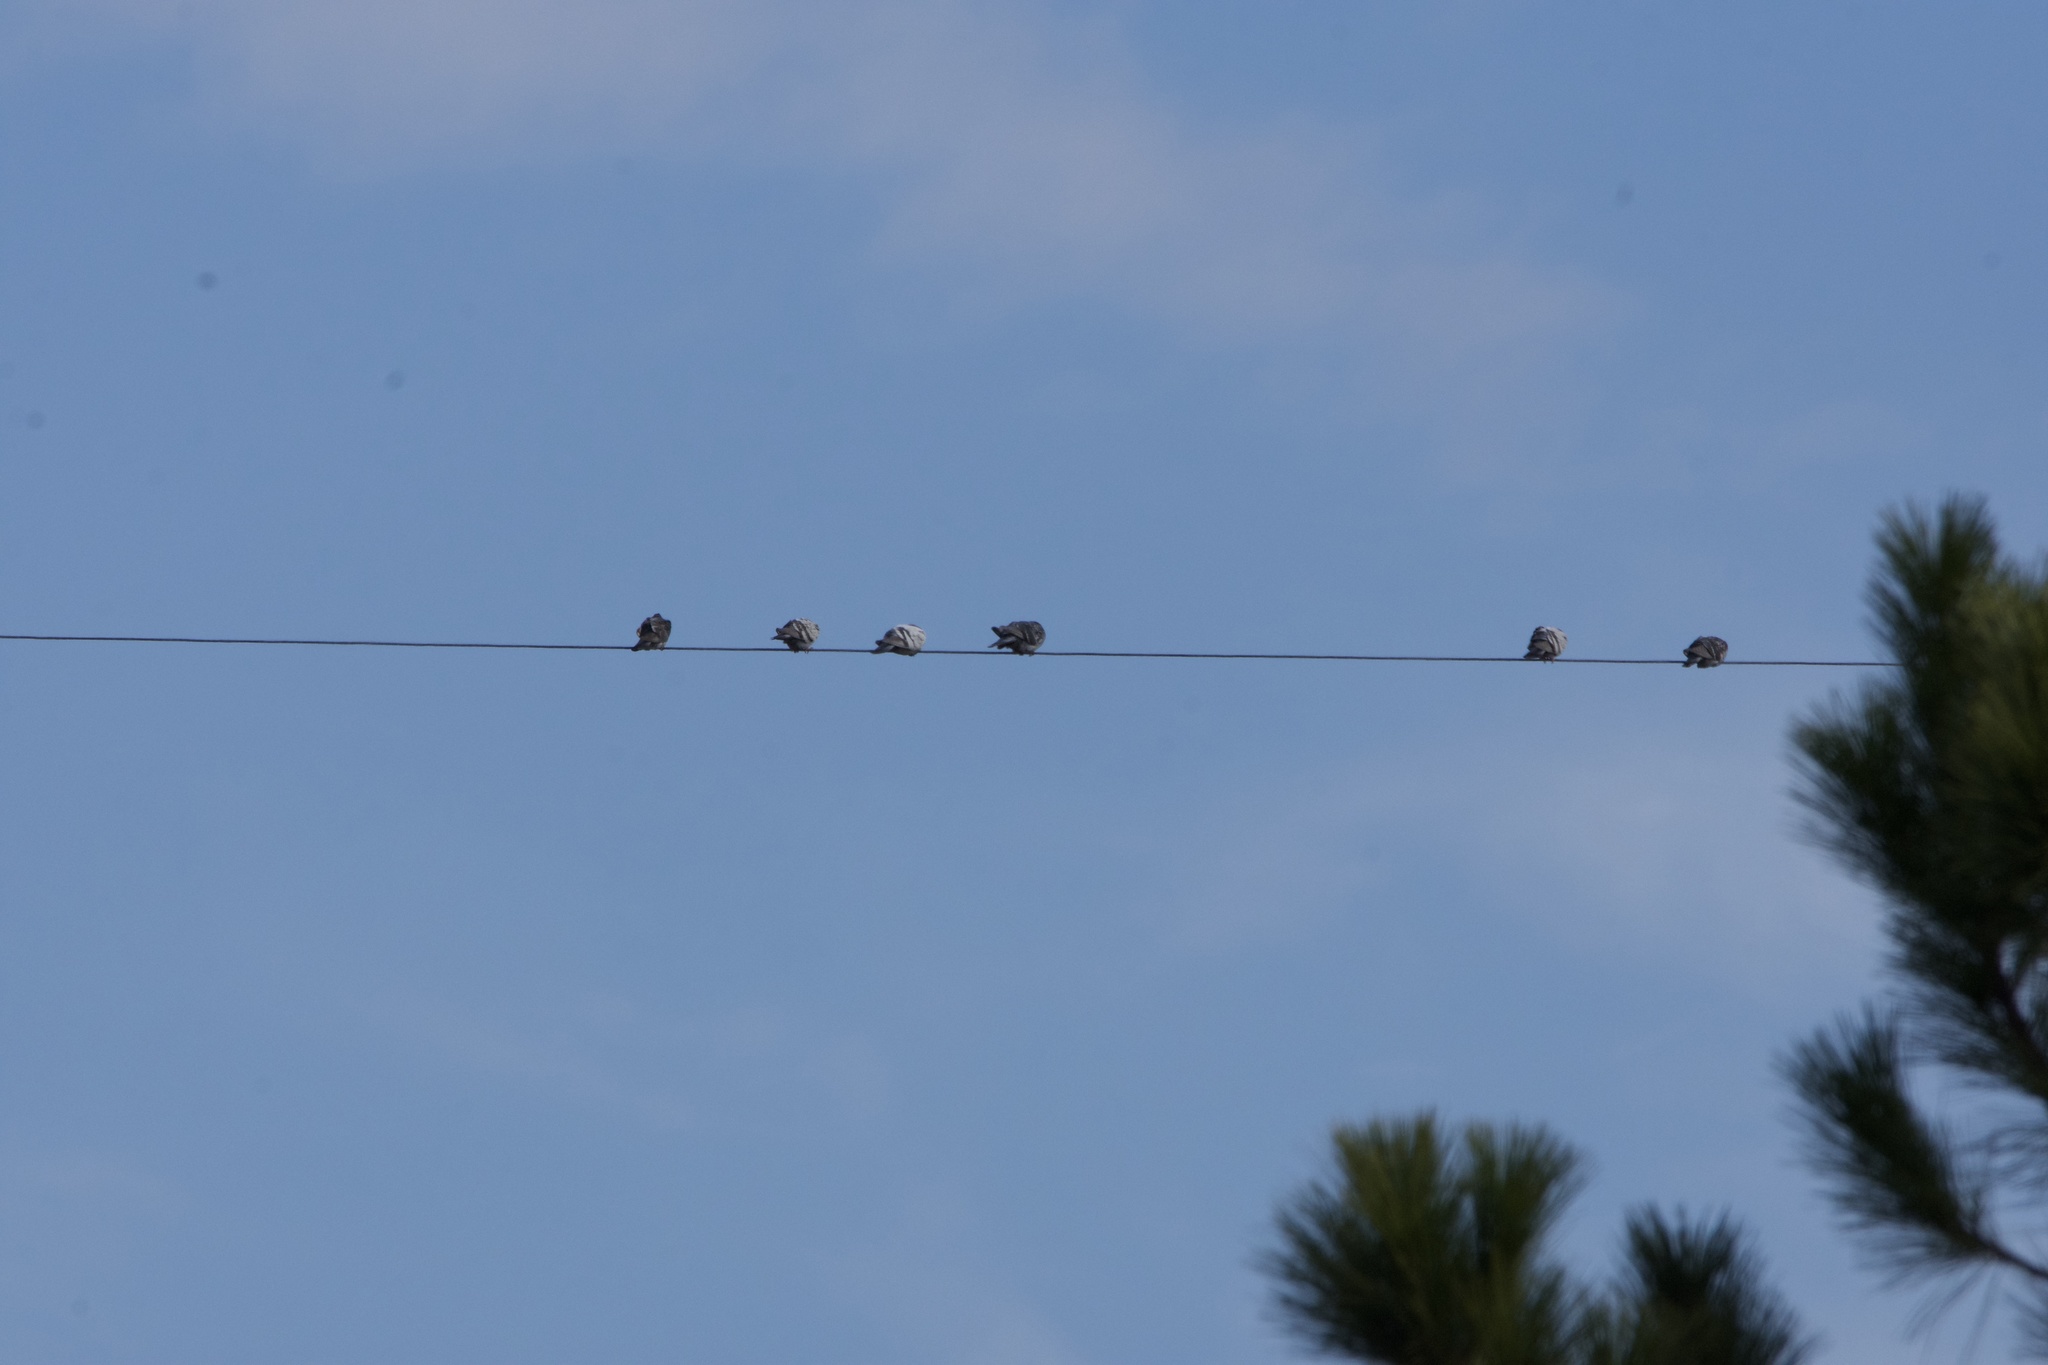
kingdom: Animalia
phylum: Chordata
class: Aves
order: Columbiformes
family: Columbidae
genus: Columba
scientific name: Columba livia
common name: Rock pigeon
